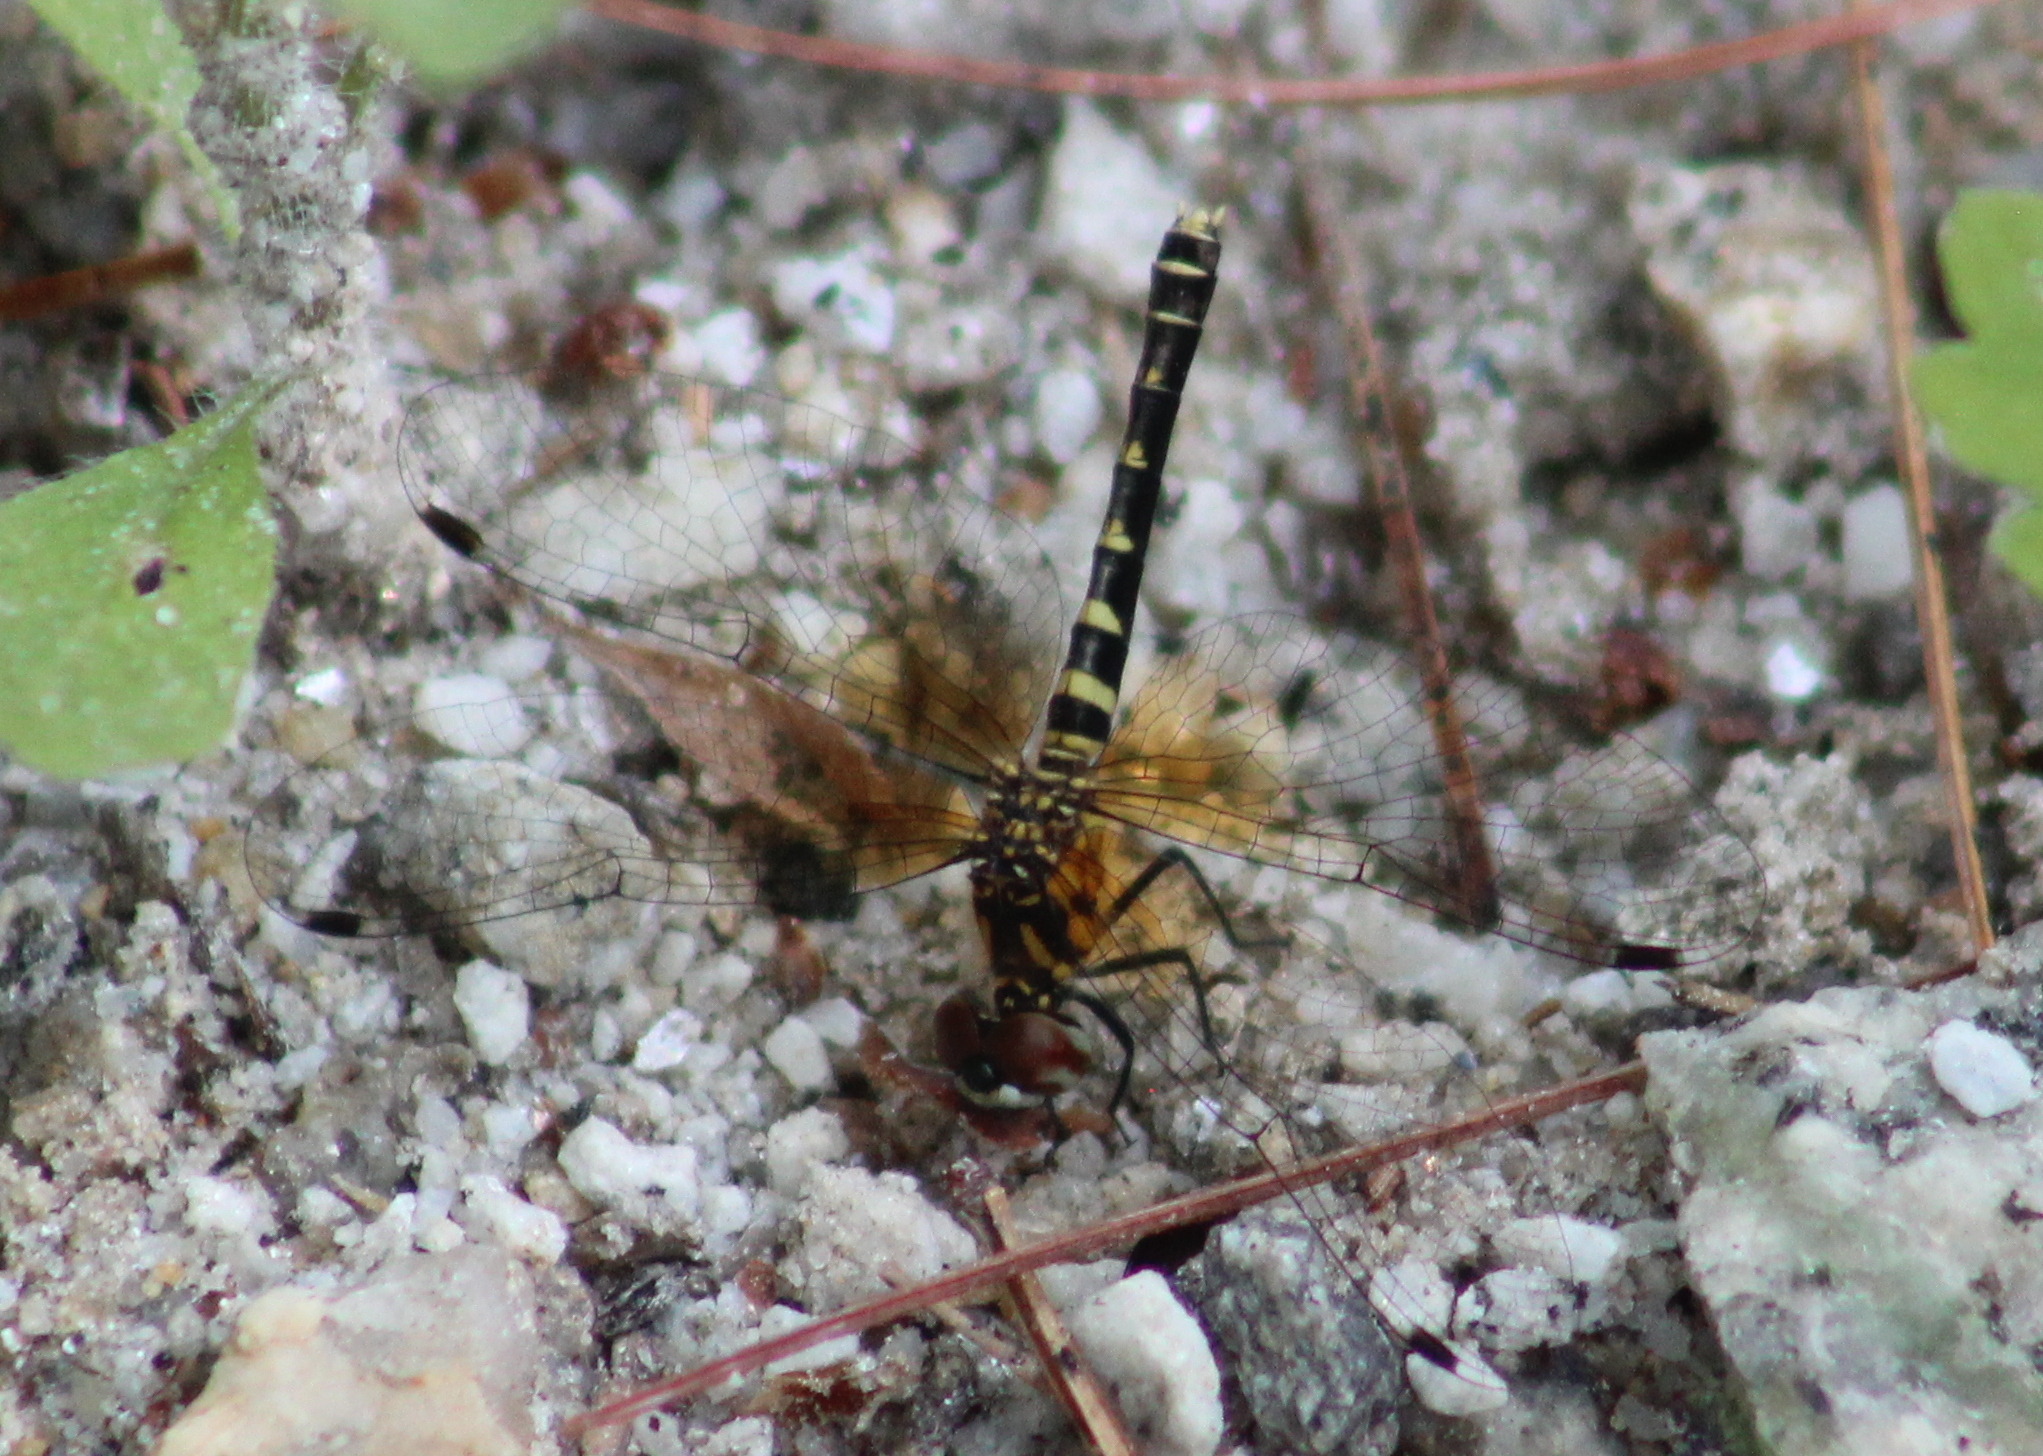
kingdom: Animalia
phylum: Arthropoda
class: Insecta
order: Odonata
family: Libellulidae
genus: Nannothemis
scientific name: Nannothemis bella
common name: Elfin skimmer
